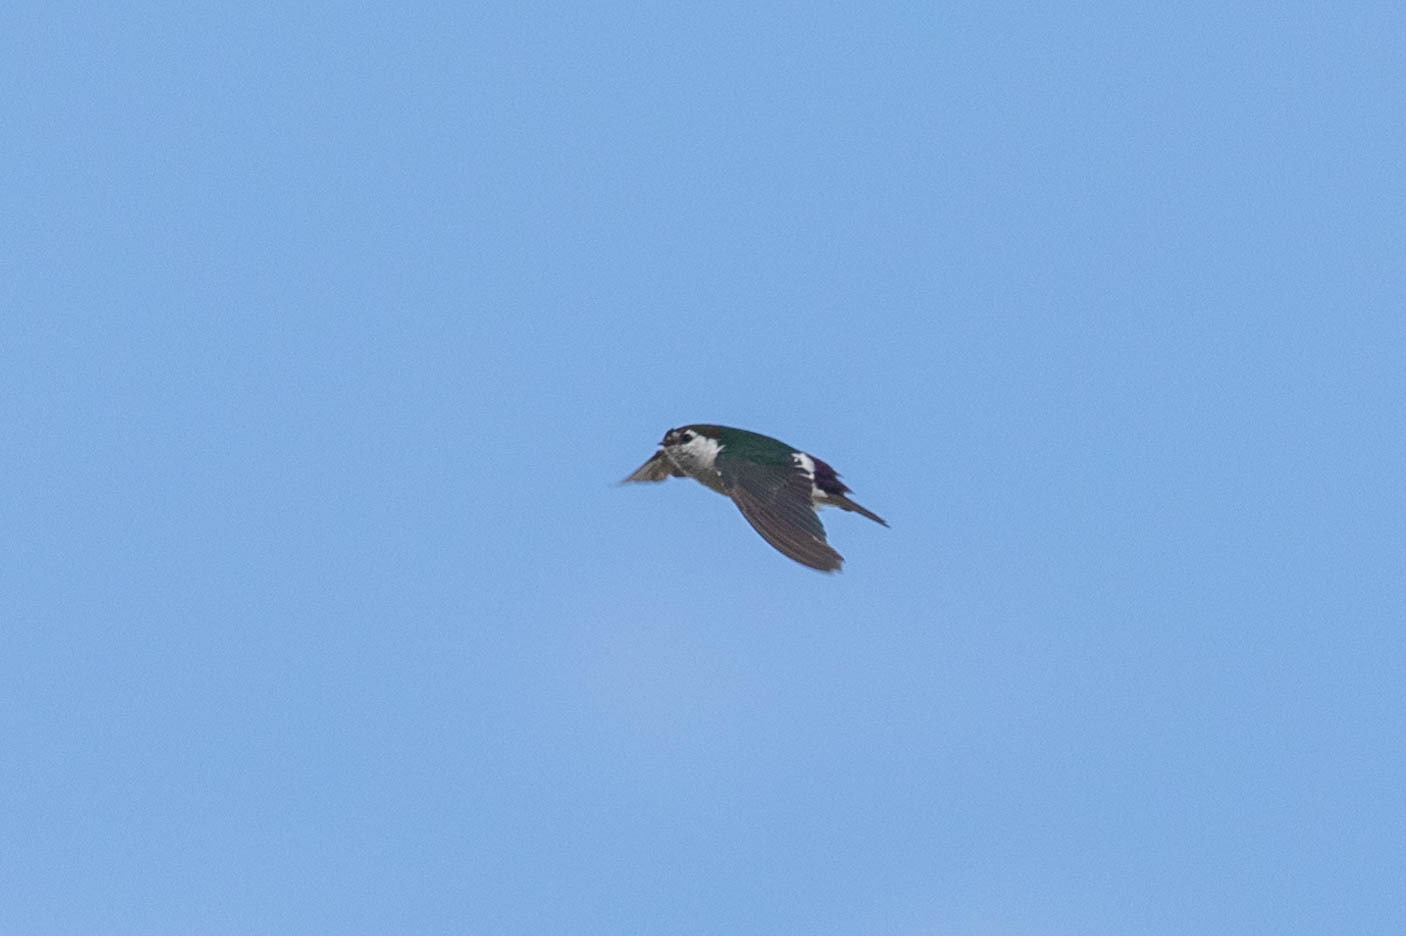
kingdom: Animalia
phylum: Chordata
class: Aves
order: Passeriformes
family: Hirundinidae
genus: Tachycineta
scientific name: Tachycineta thalassina
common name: Violet-green swallow
